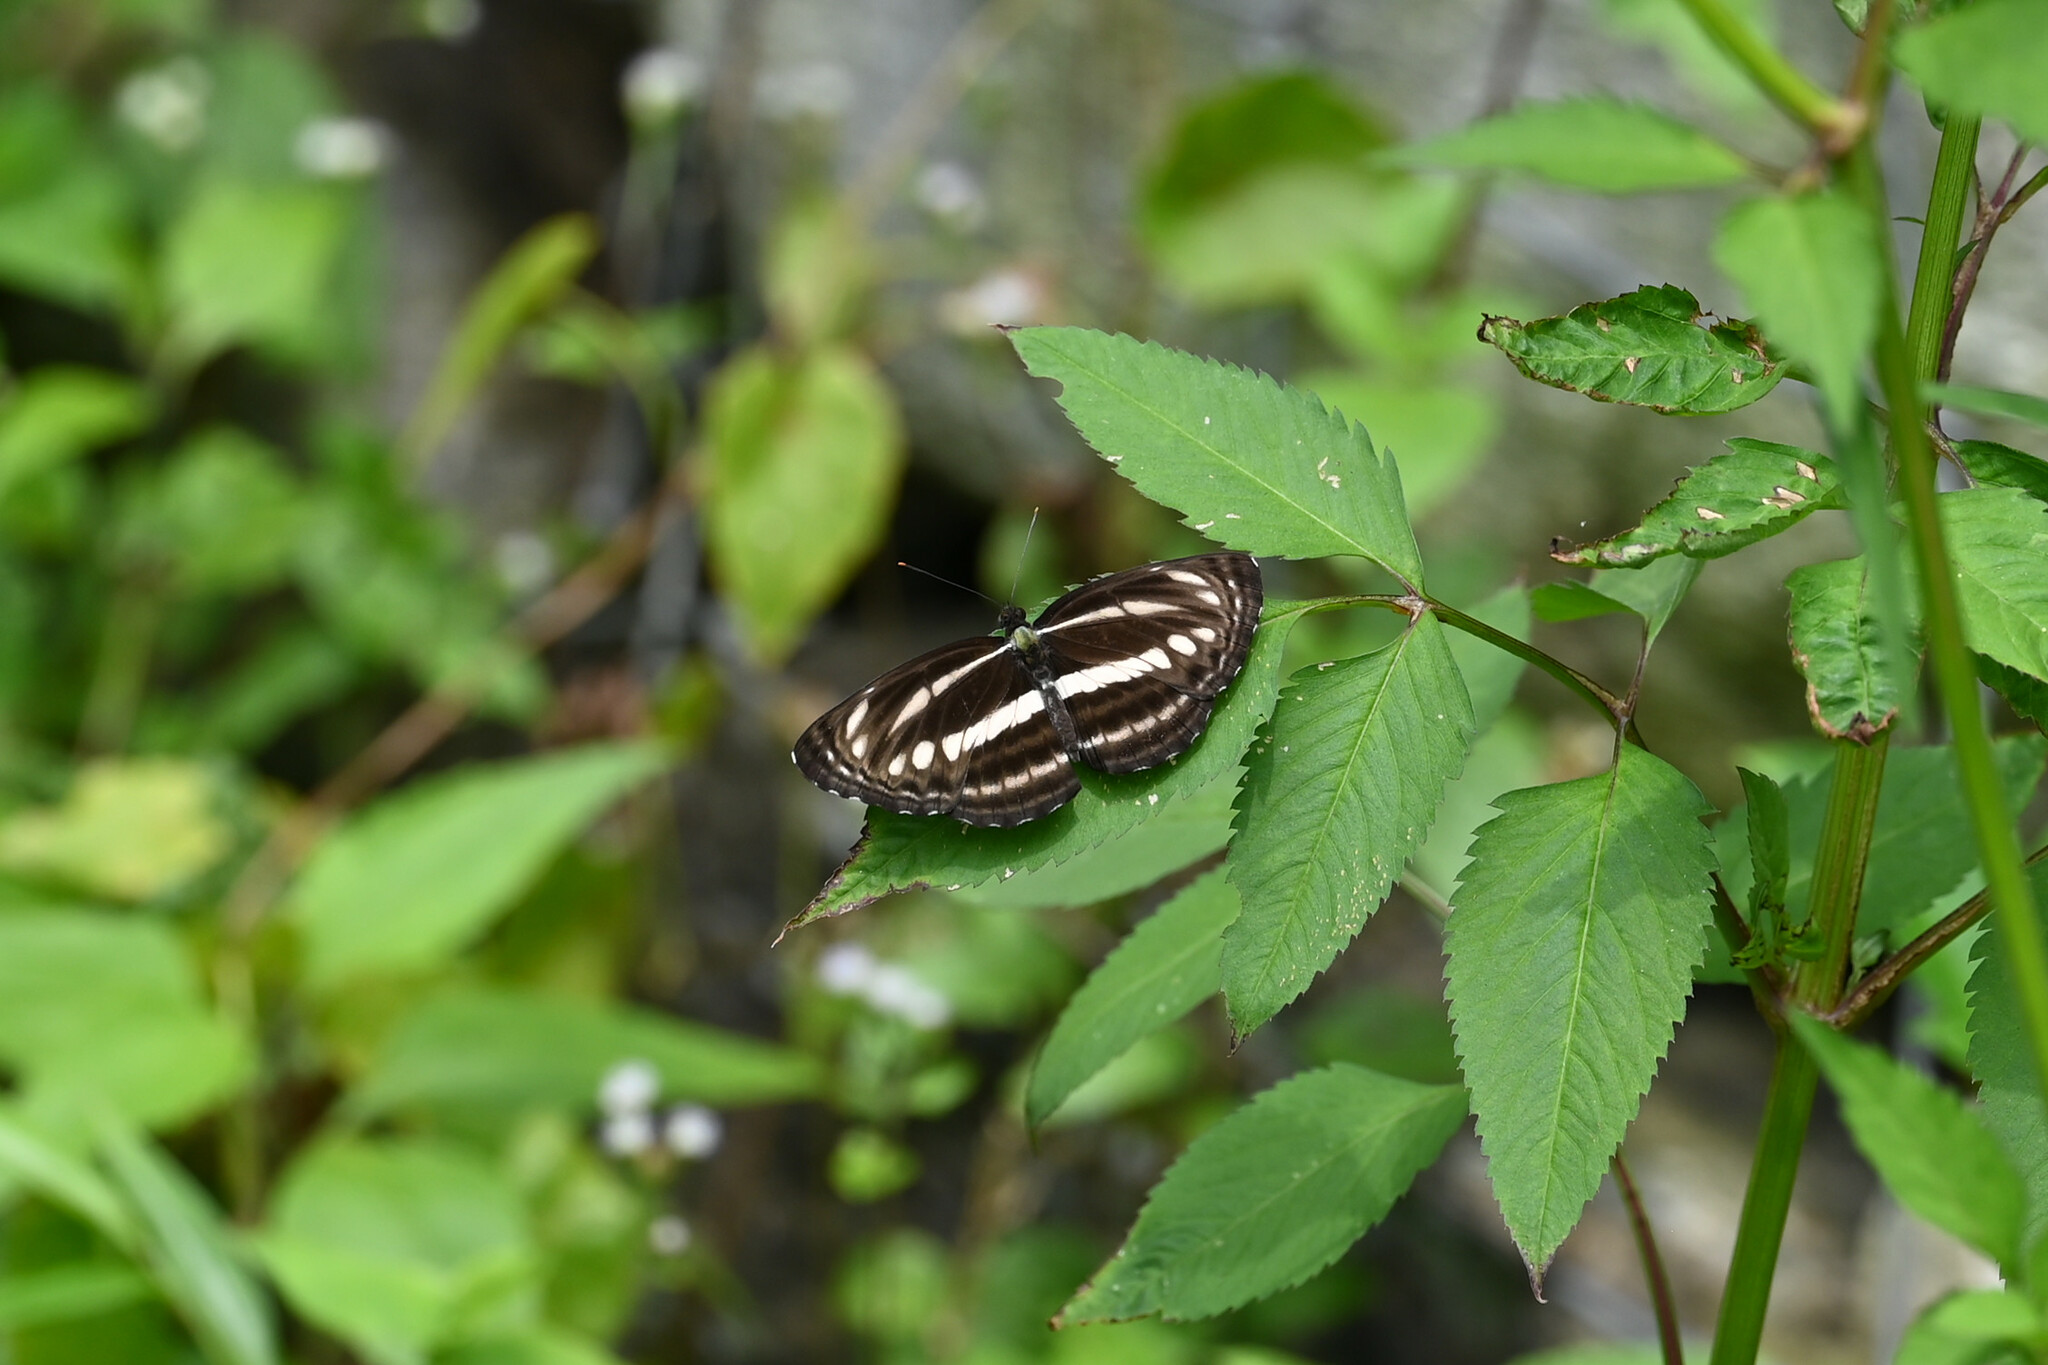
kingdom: Animalia
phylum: Arthropoda
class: Insecta
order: Lepidoptera
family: Nymphalidae
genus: Neptis
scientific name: Neptis clinia
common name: Southern sullied sailer
